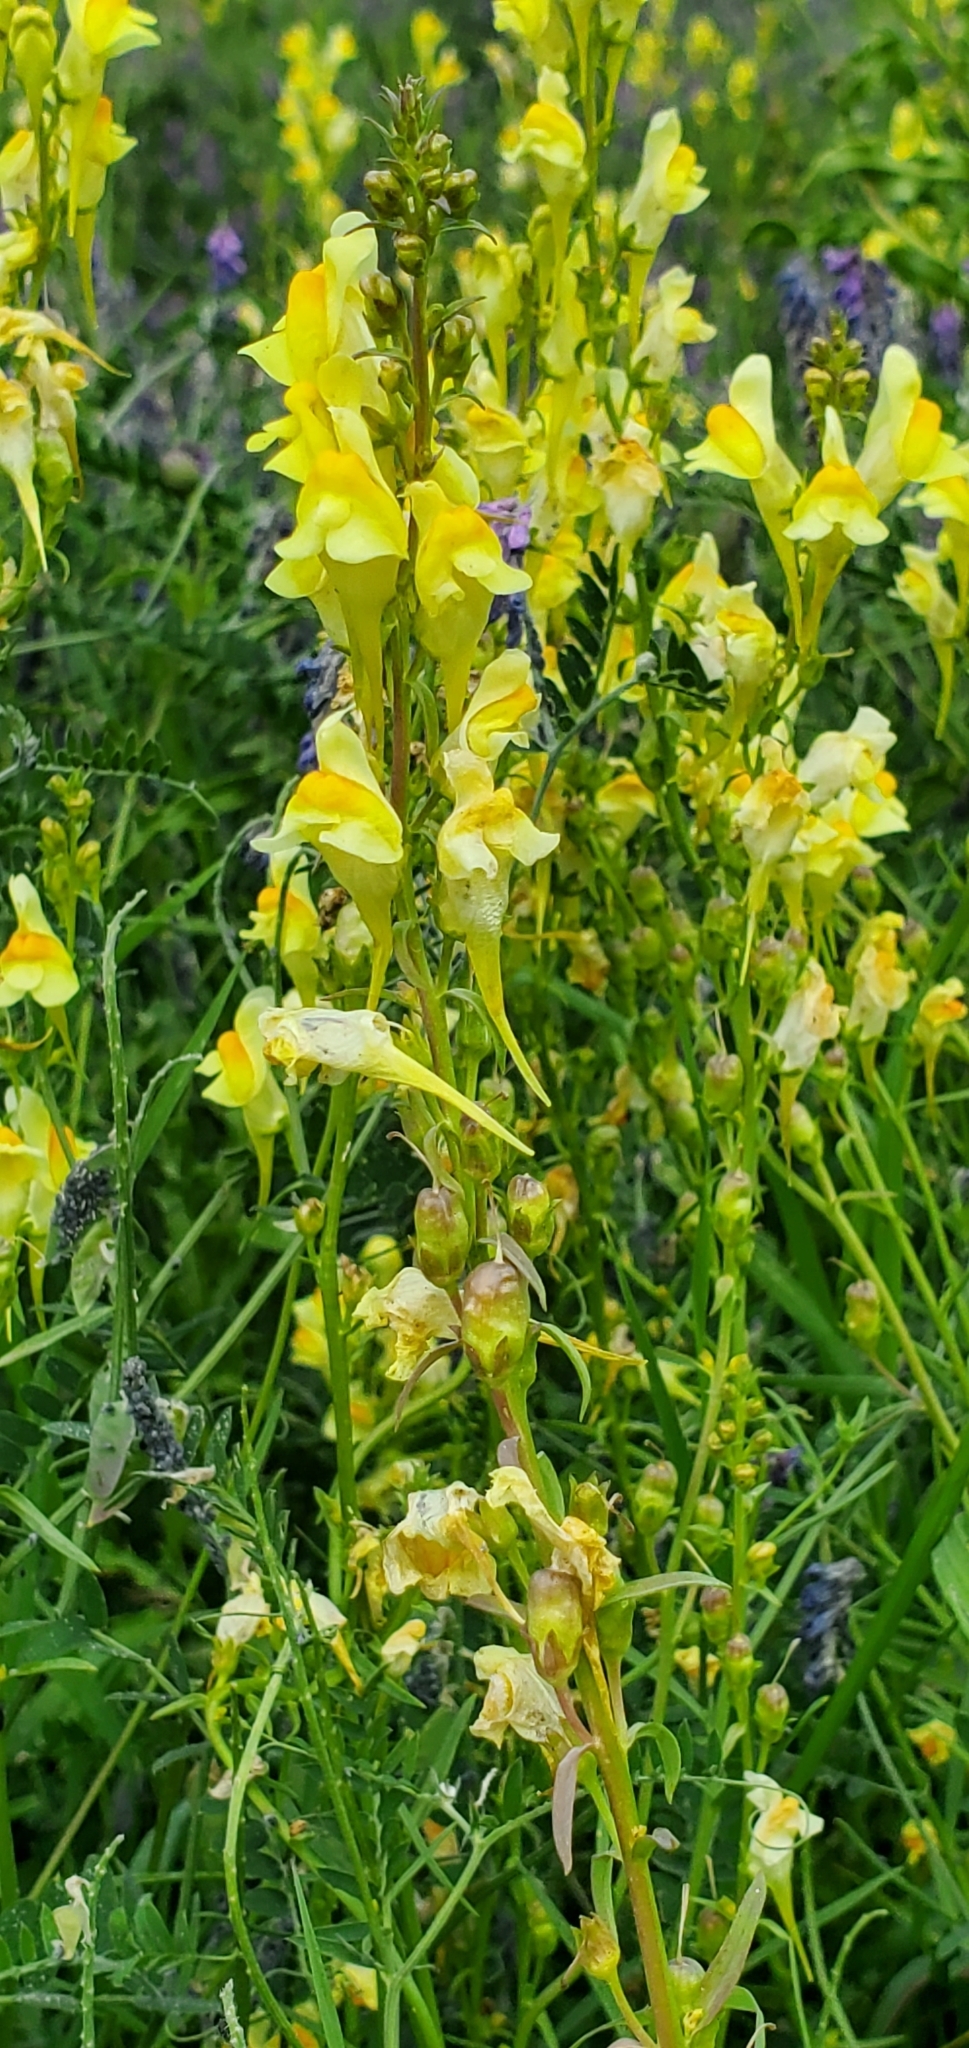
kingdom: Plantae
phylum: Tracheophyta
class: Magnoliopsida
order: Lamiales
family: Plantaginaceae
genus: Linaria
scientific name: Linaria vulgaris
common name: Butter and eggs
